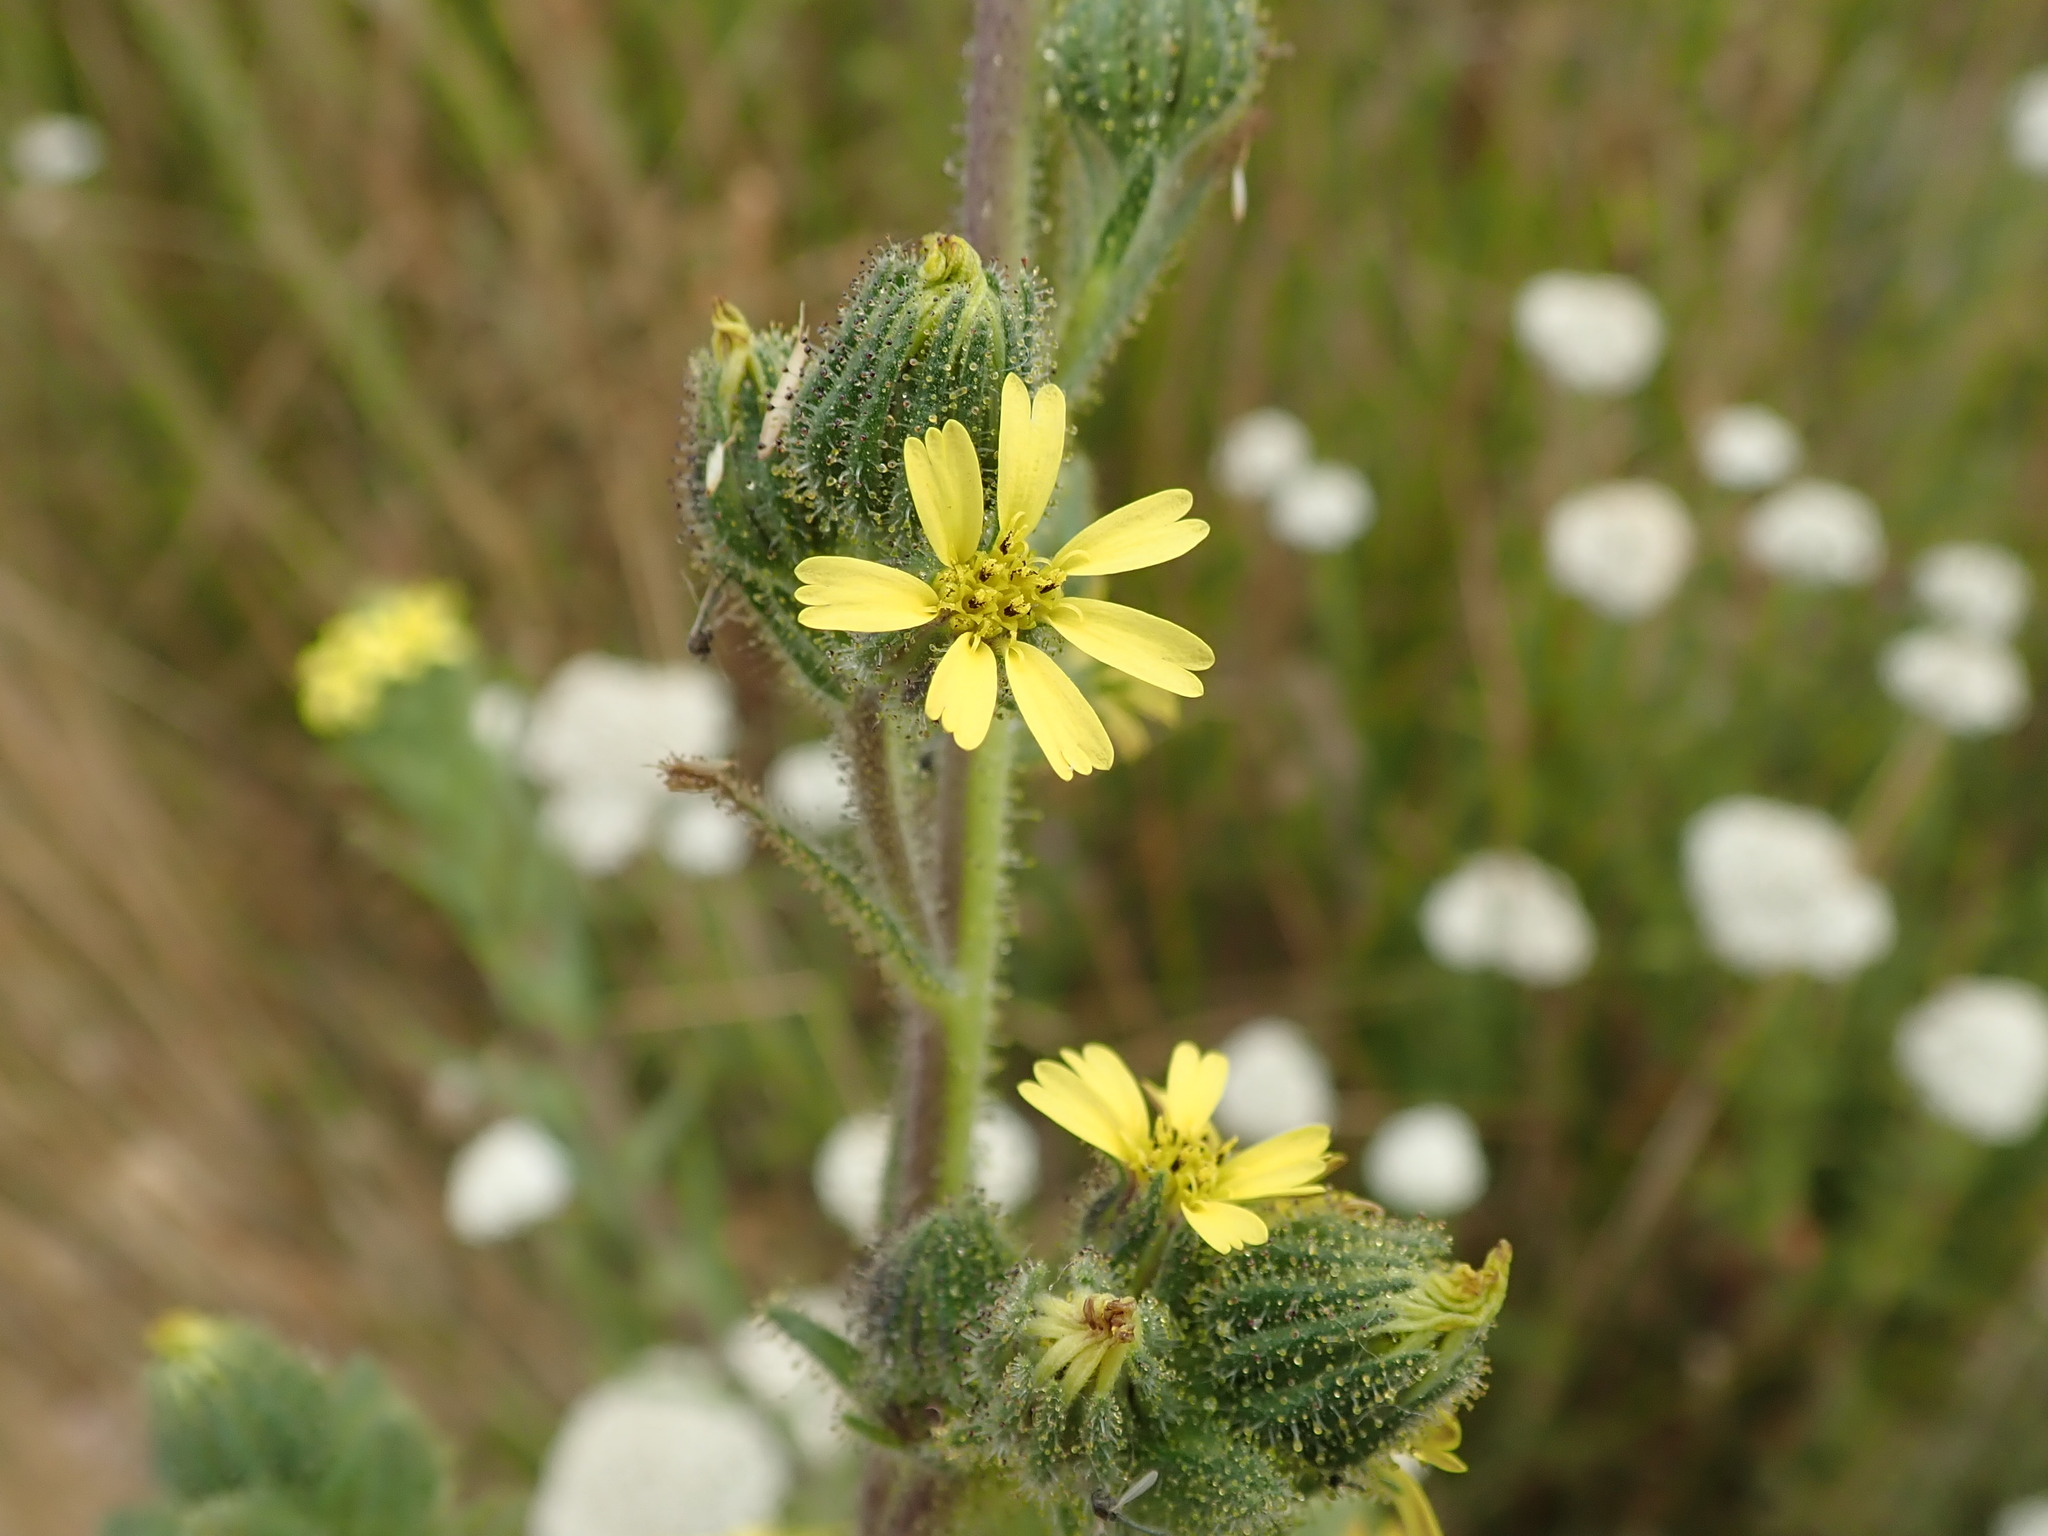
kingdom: Plantae
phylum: Tracheophyta
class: Magnoliopsida
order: Asterales
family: Asteraceae
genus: Madia
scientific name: Madia sativa
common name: Coast tarweed
